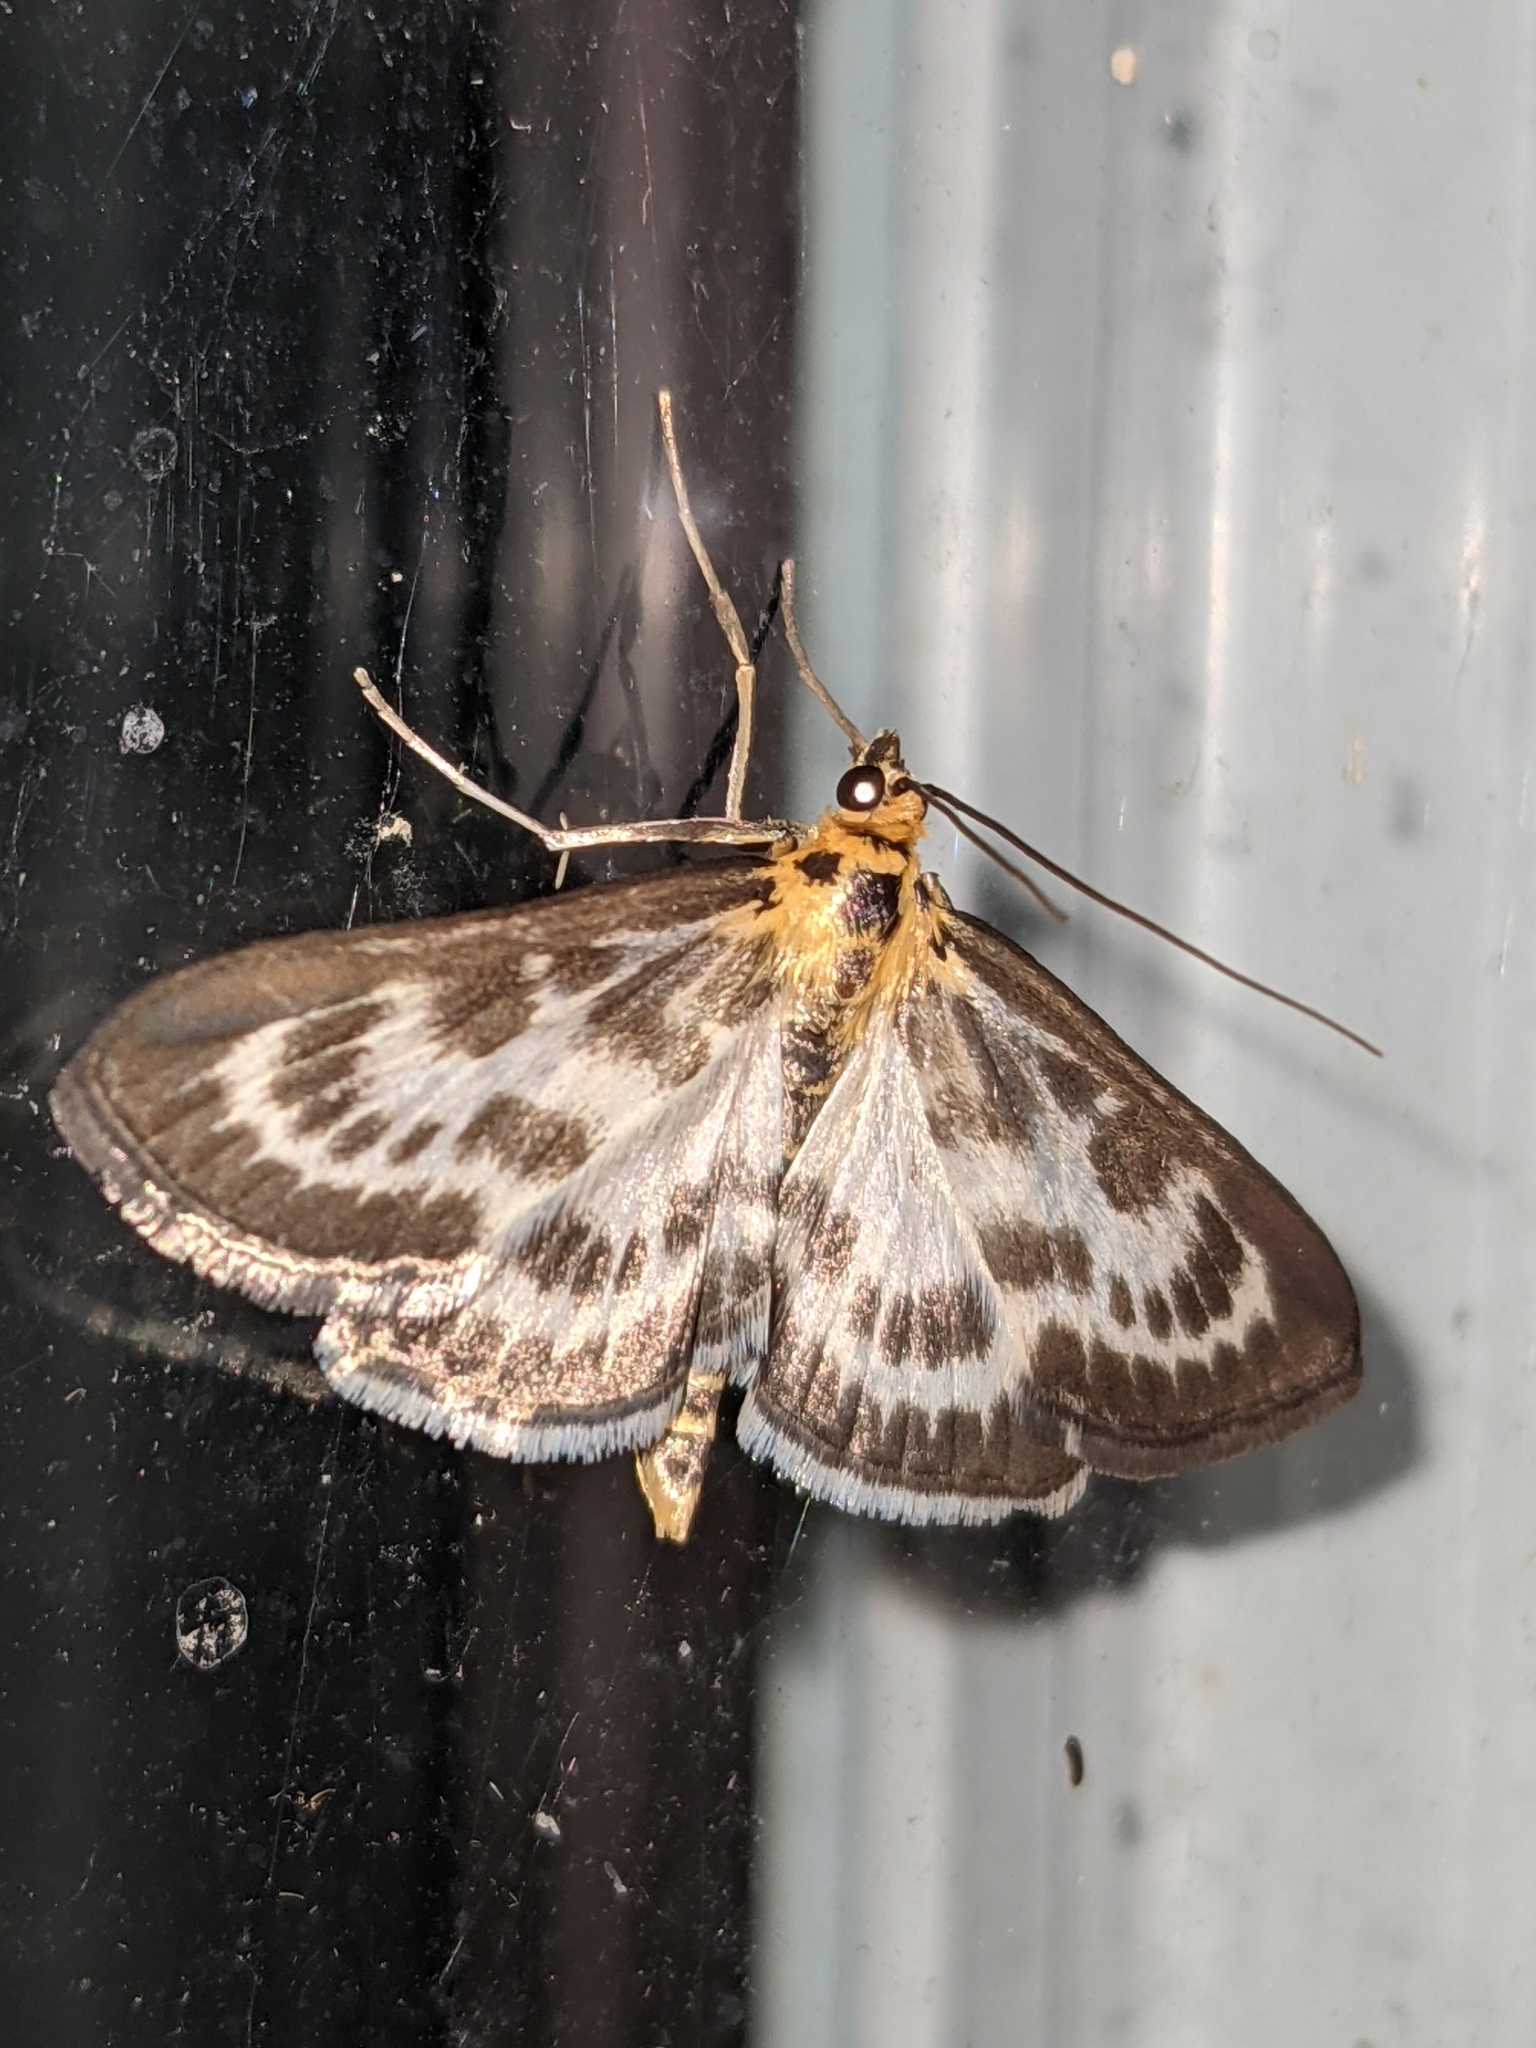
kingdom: Animalia
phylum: Arthropoda
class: Insecta
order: Lepidoptera
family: Crambidae
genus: Anania
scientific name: Anania hortulata
